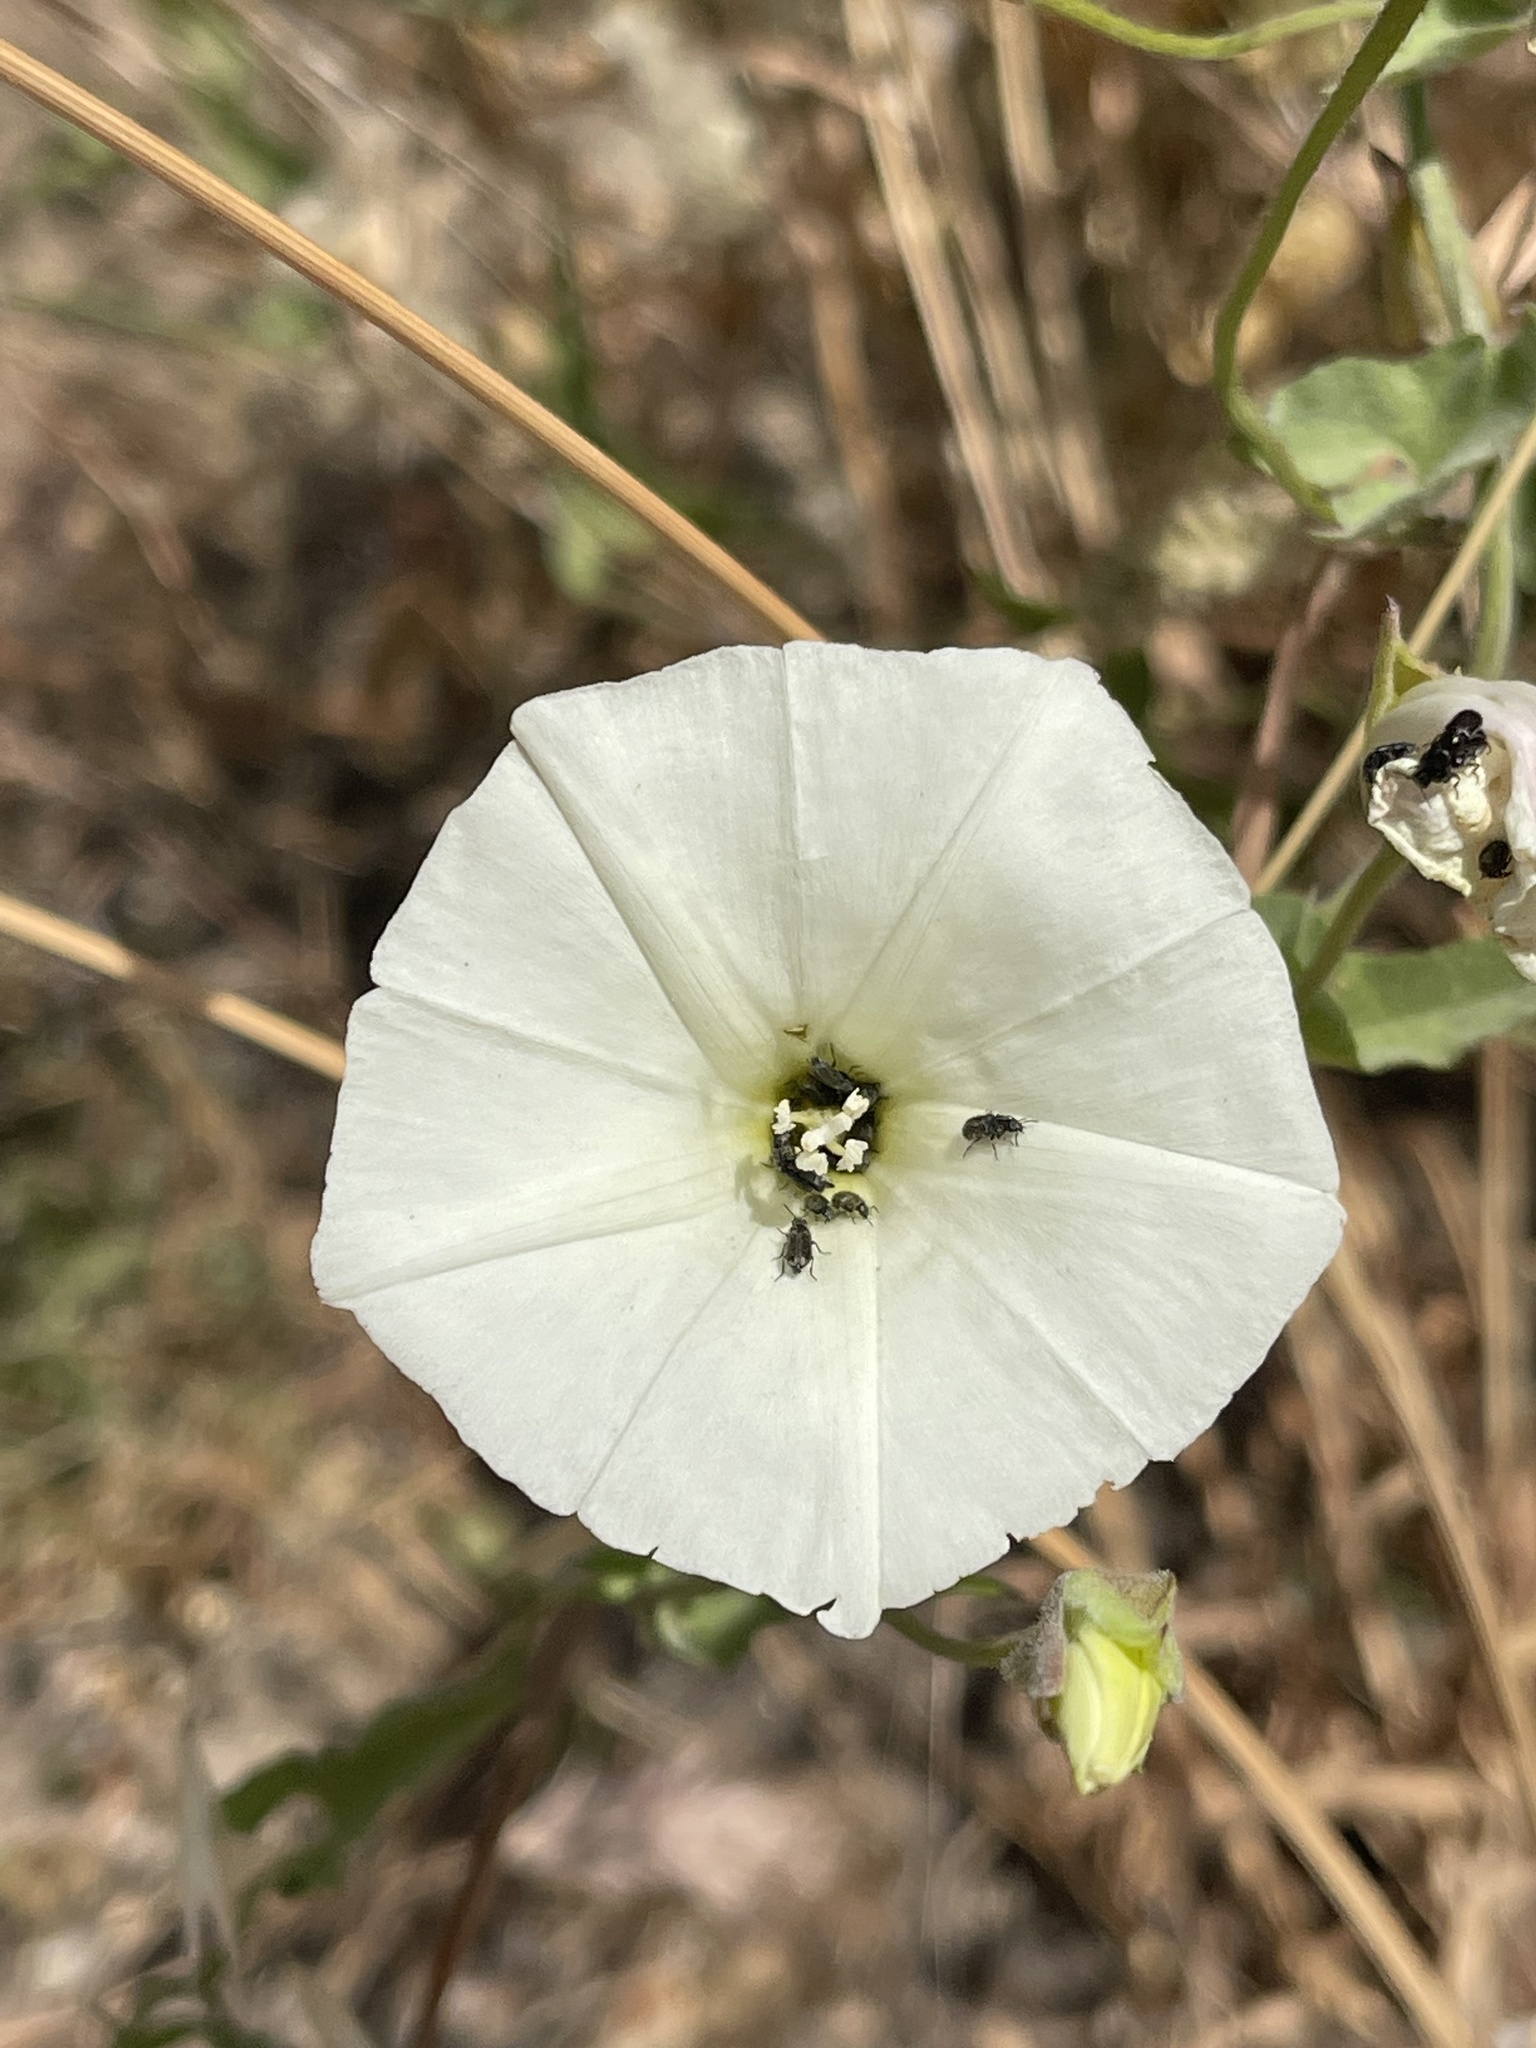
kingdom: Plantae
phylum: Tracheophyta
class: Magnoliopsida
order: Solanales
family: Convolvulaceae
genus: Calystegia
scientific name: Calystegia macrostegia
